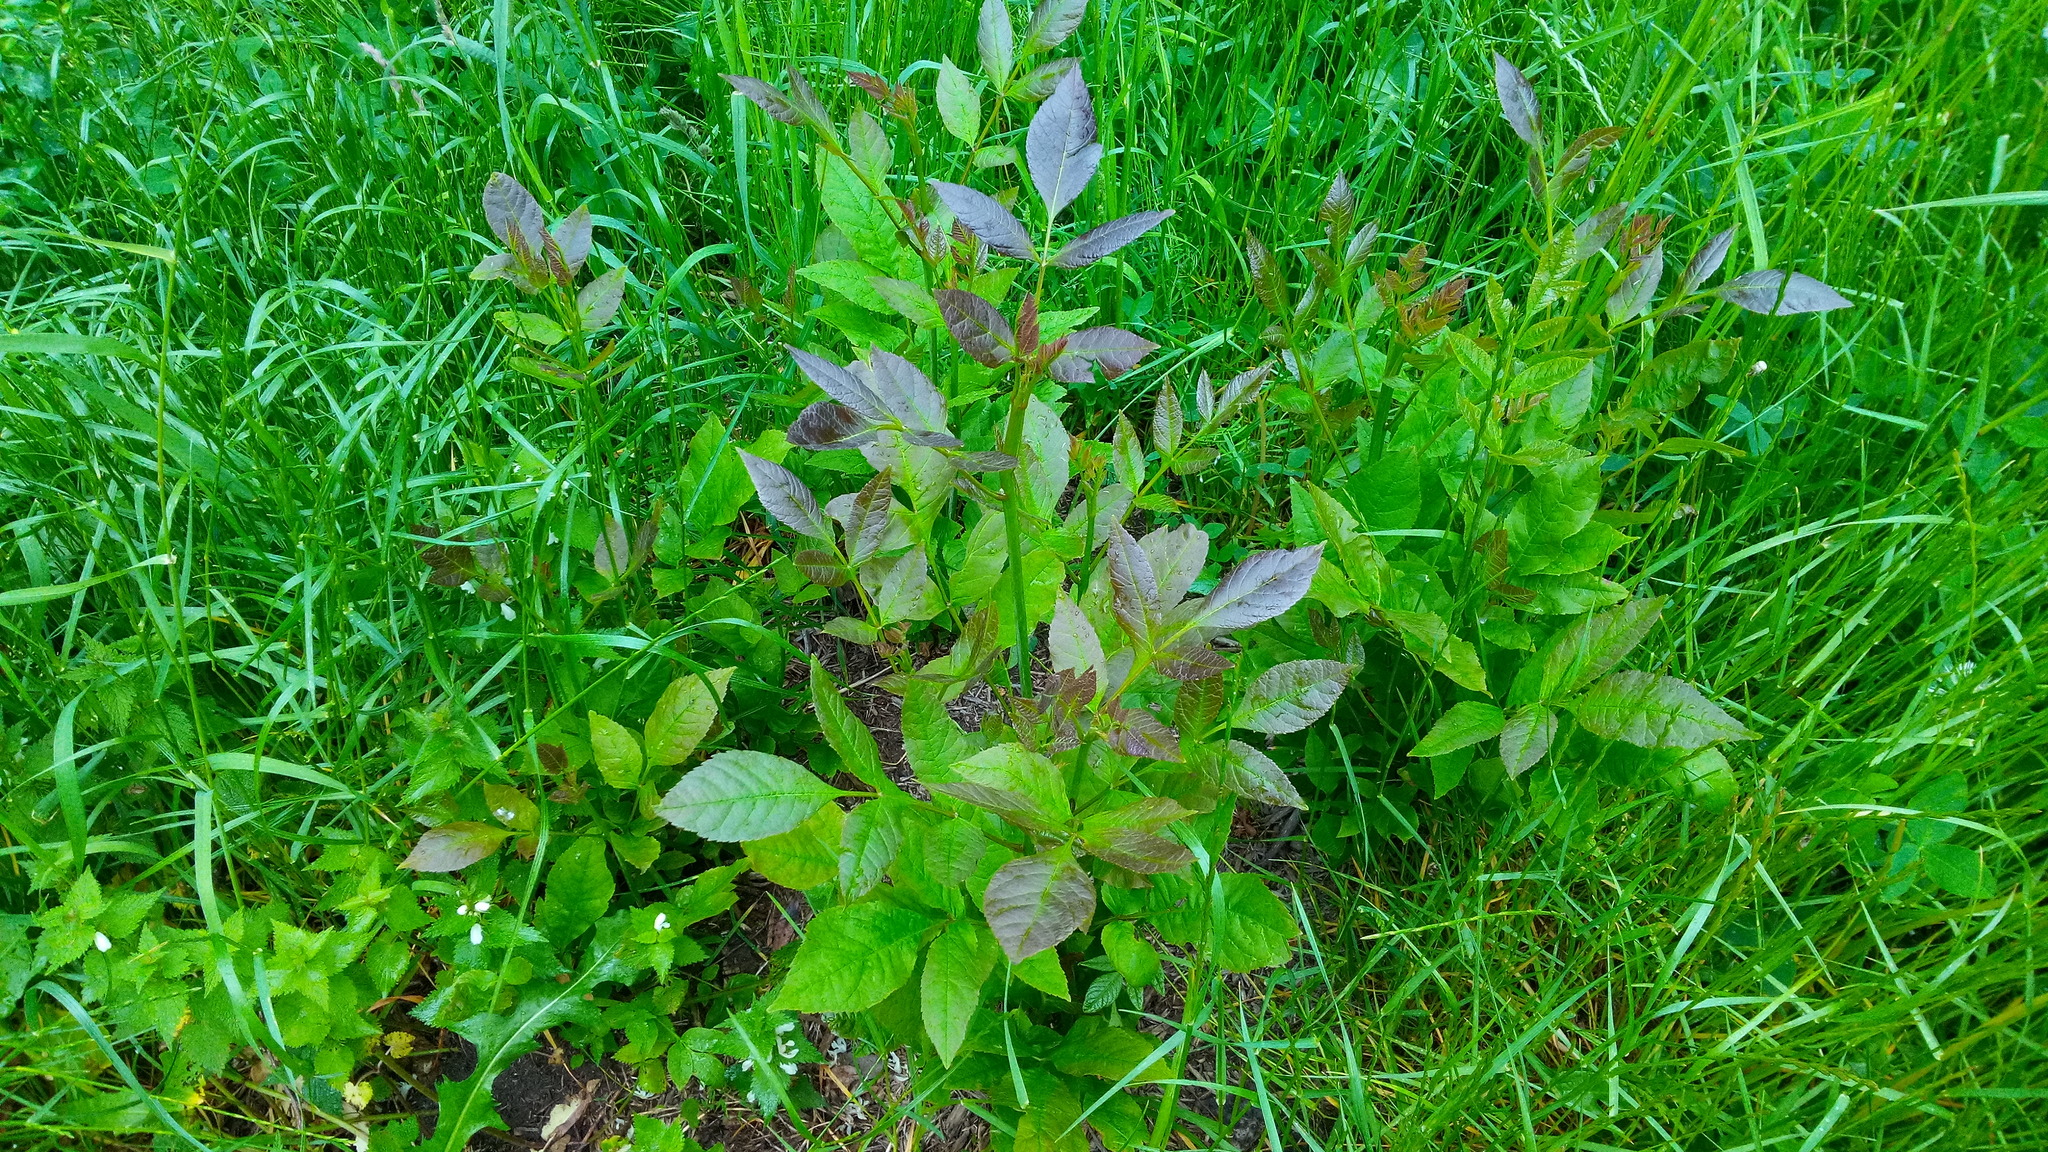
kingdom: Plantae
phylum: Tracheophyta
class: Magnoliopsida
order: Lamiales
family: Oleaceae
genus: Fraxinus
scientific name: Fraxinus pennsylvanica
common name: Green ash
